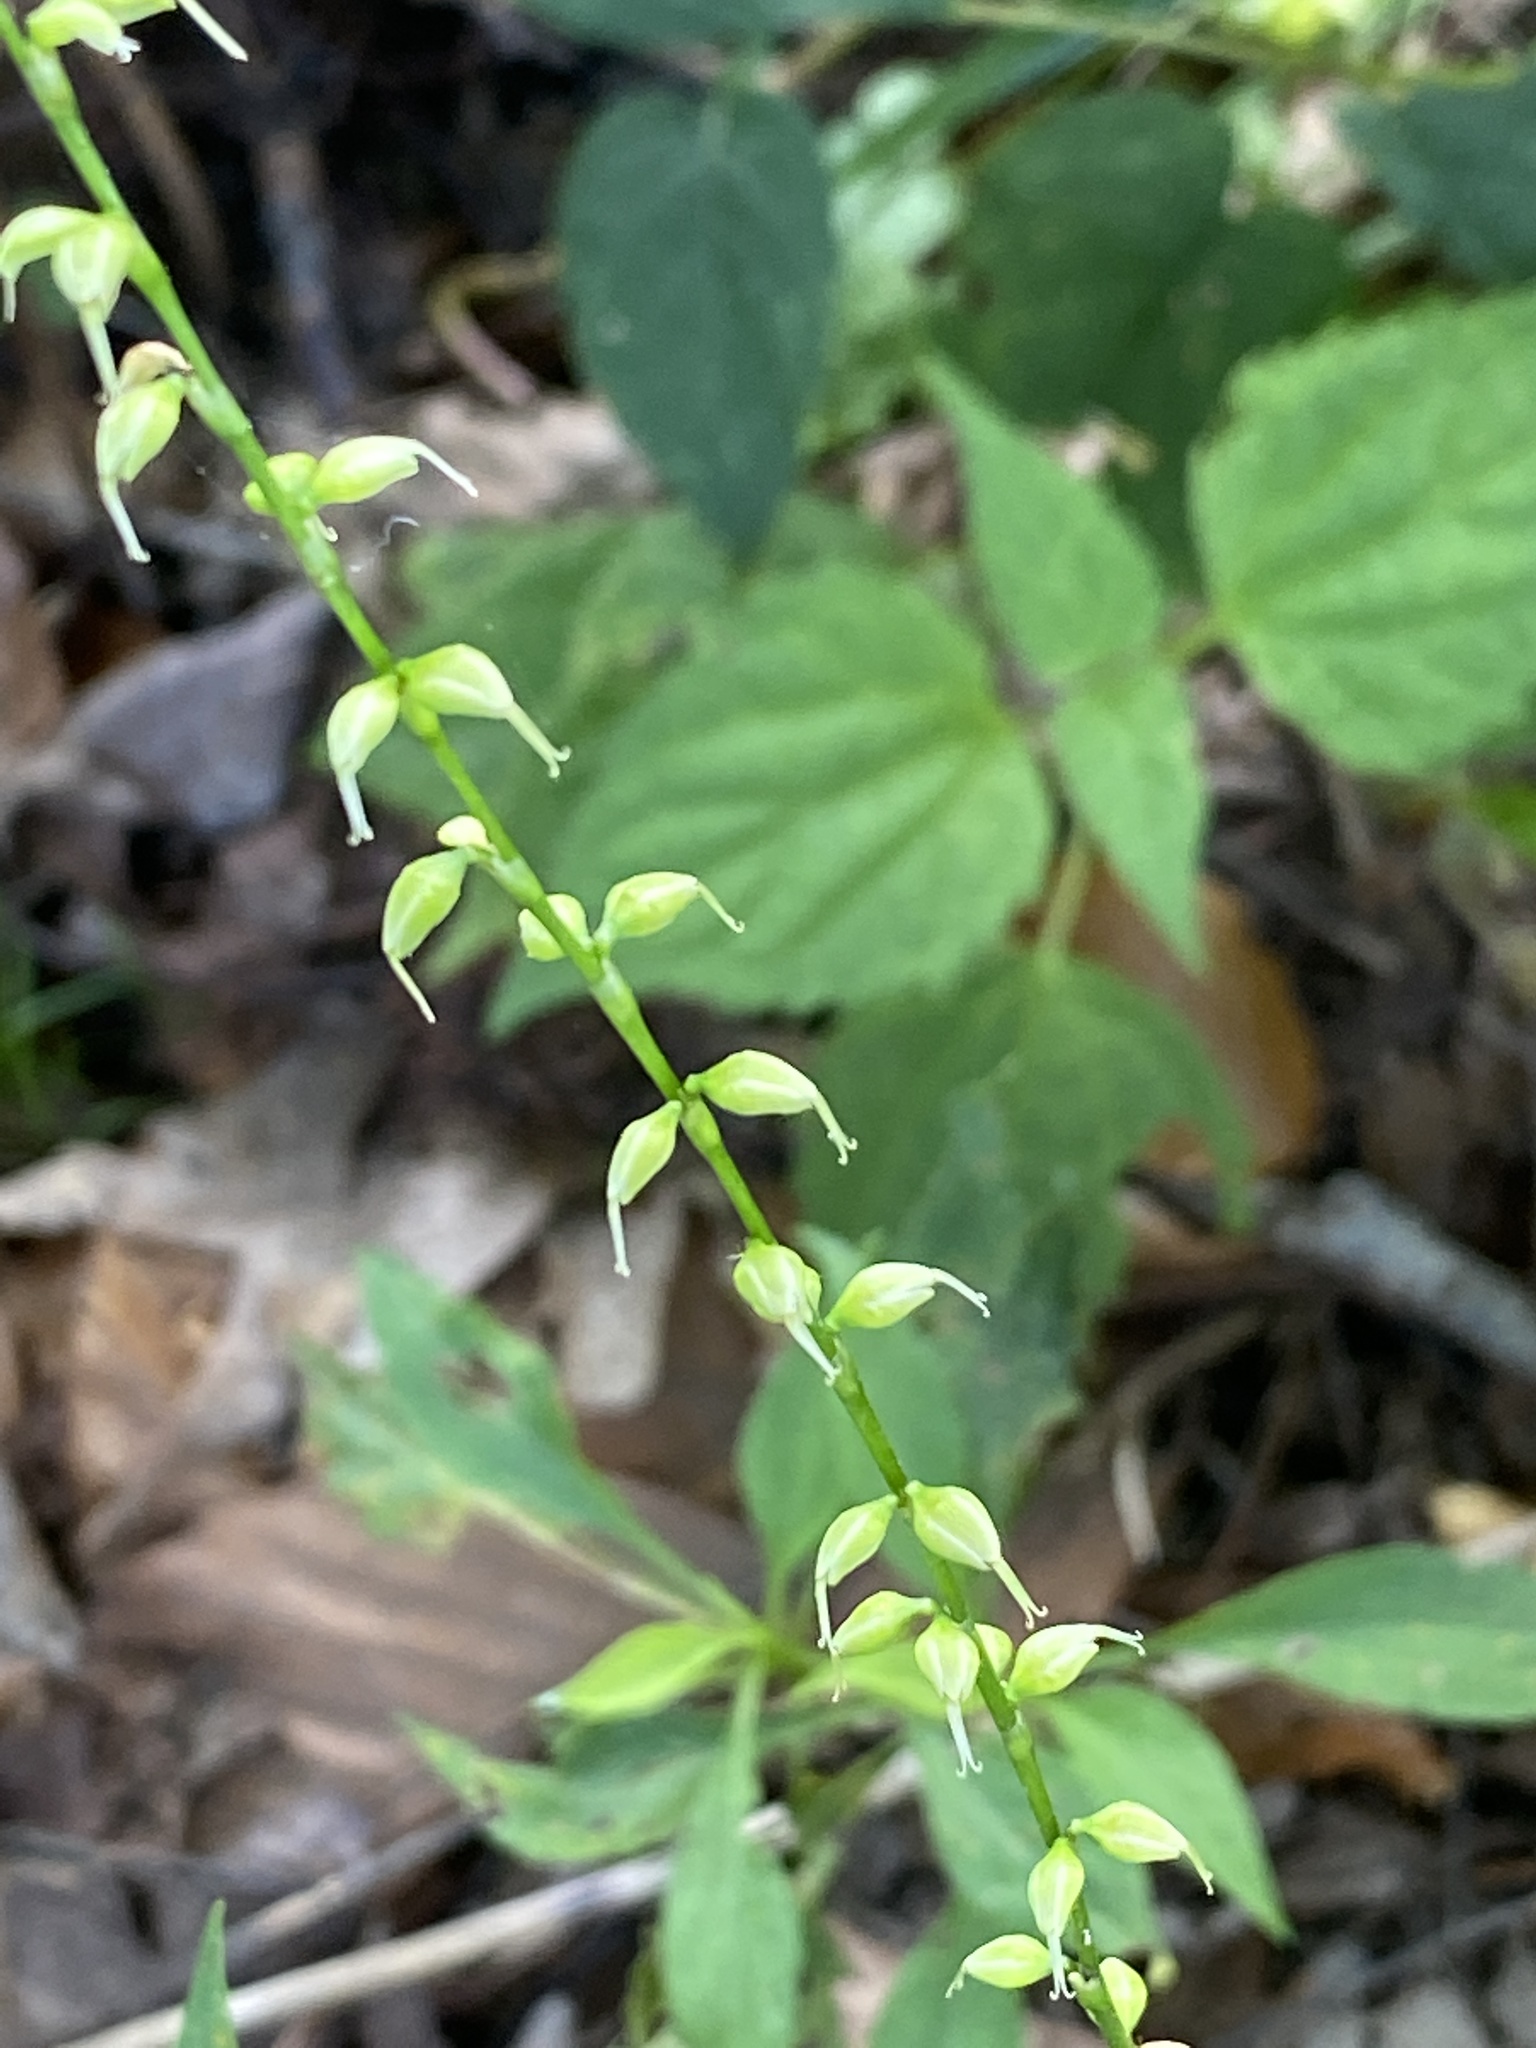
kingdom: Plantae
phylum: Tracheophyta
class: Magnoliopsida
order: Caryophyllales
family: Polygonaceae
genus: Persicaria
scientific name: Persicaria virginiana
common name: Jumpseed
